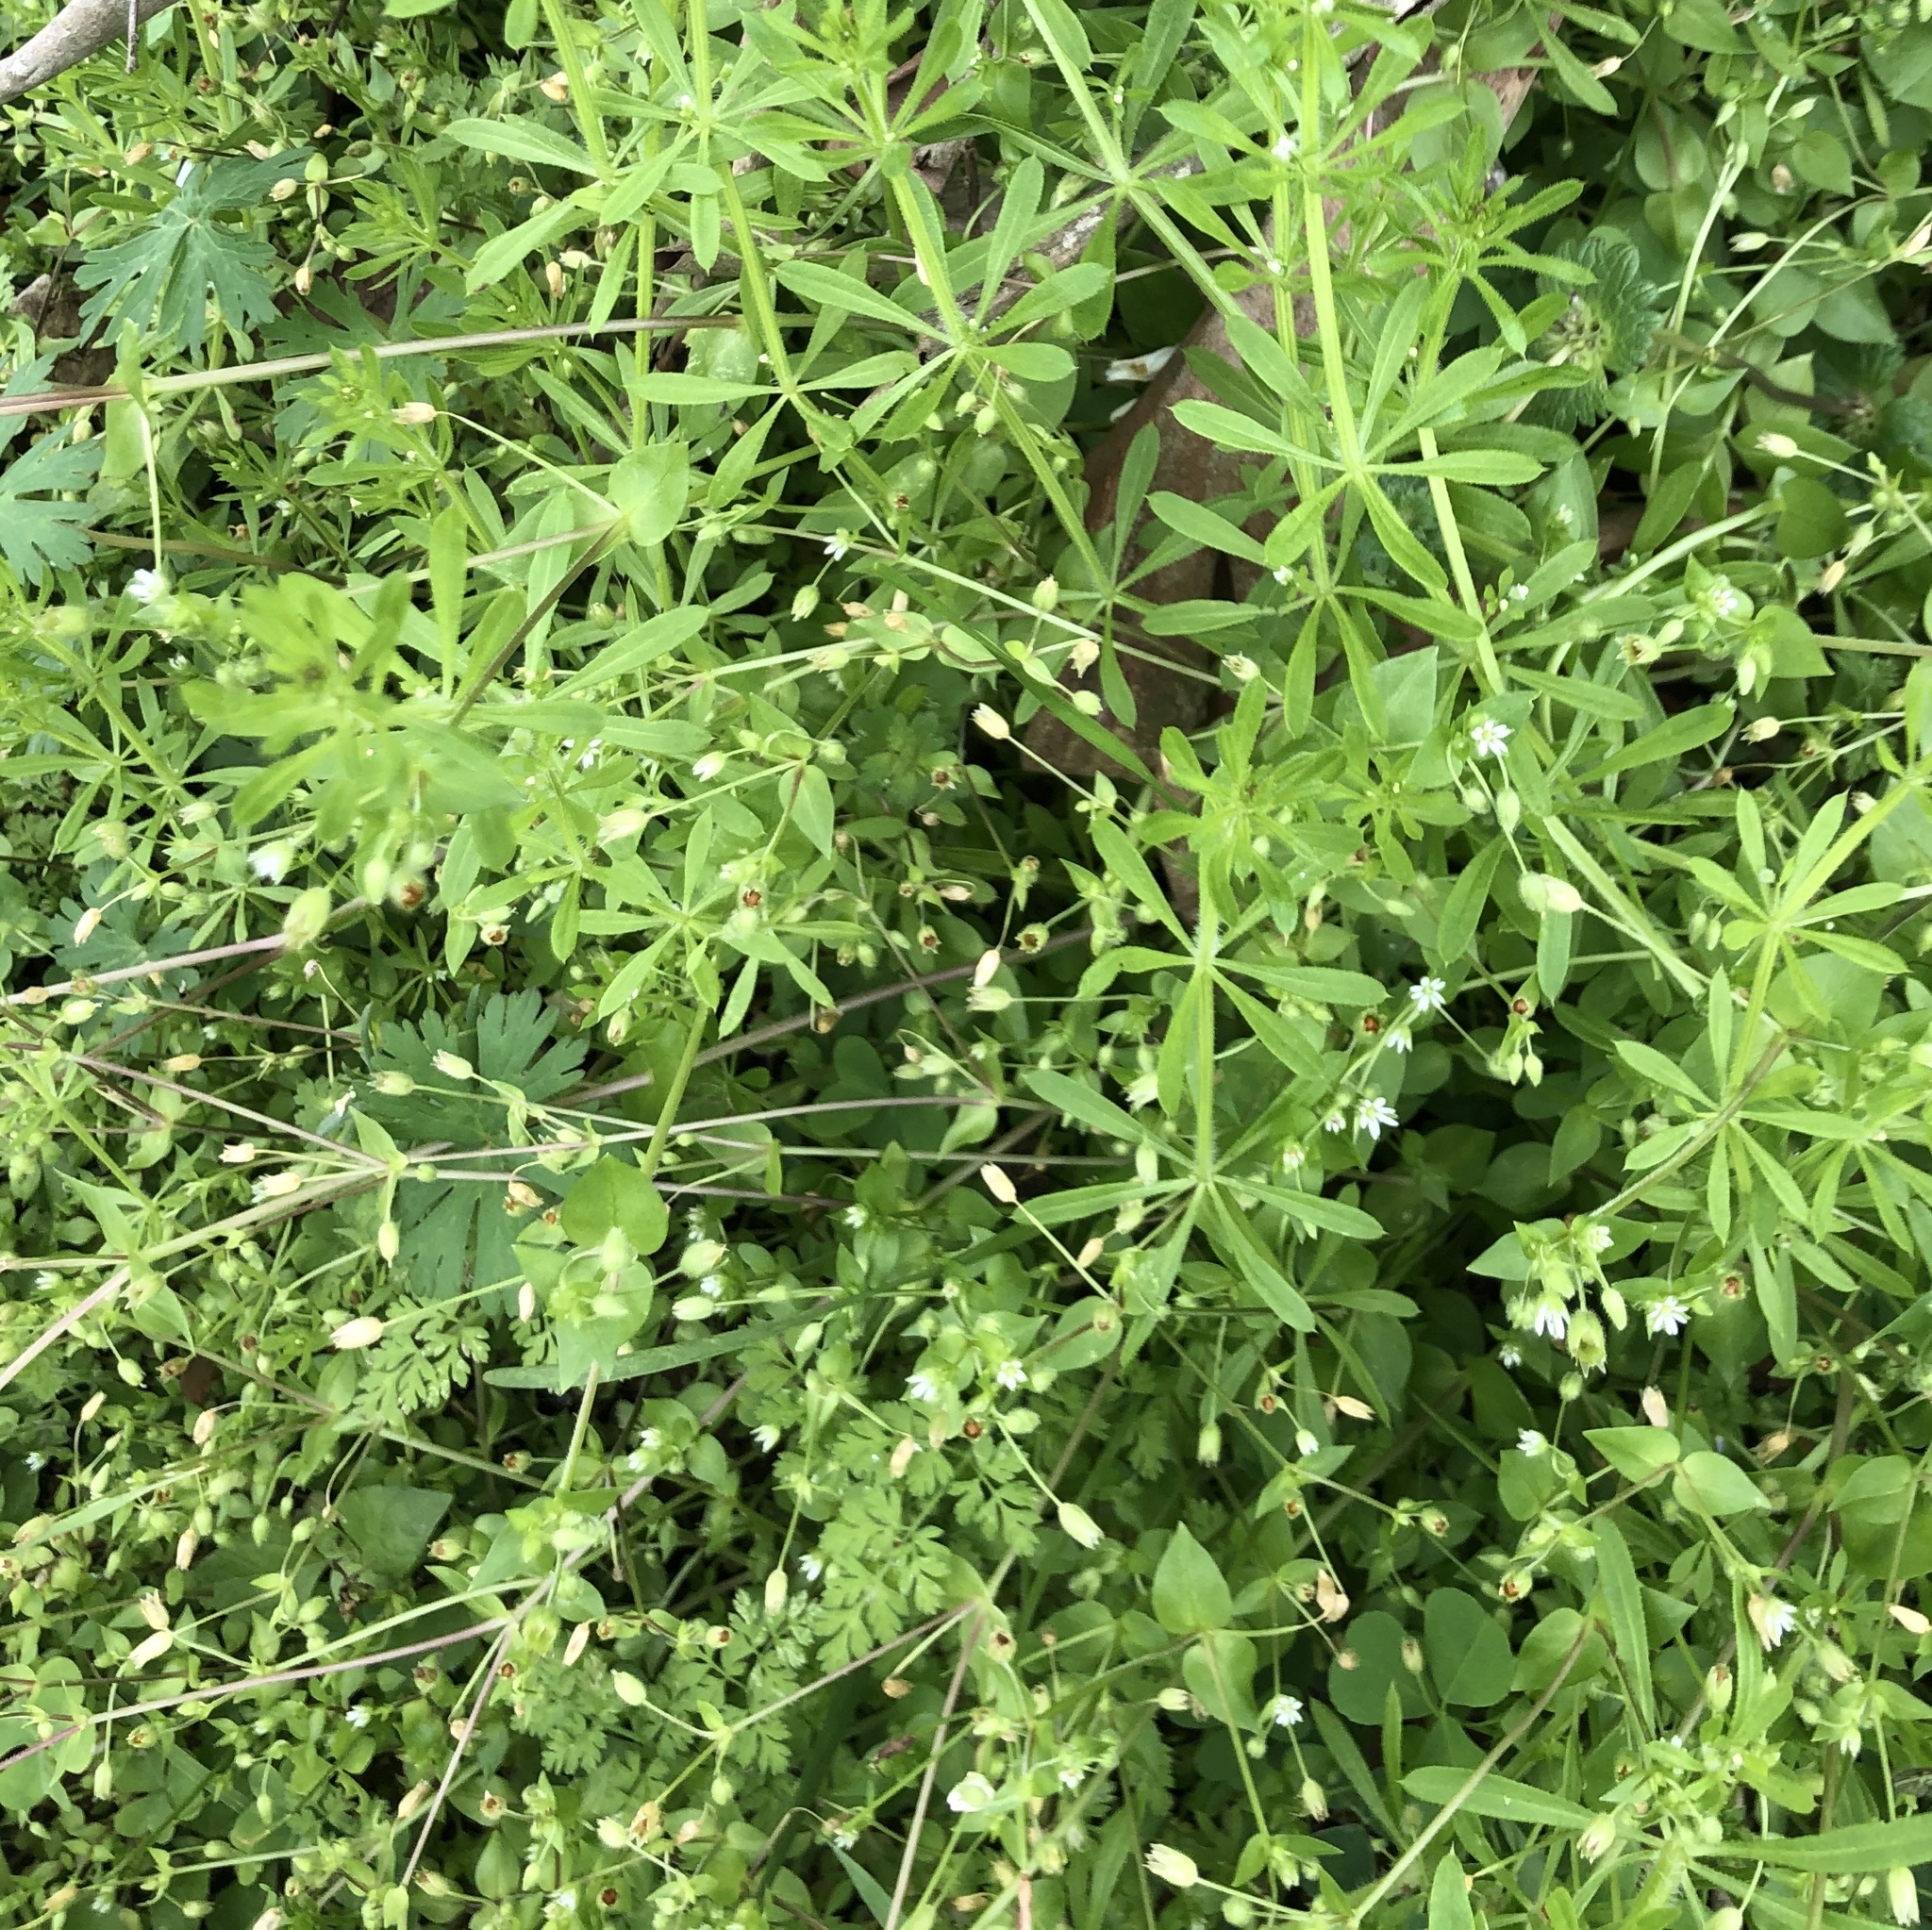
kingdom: Plantae
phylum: Tracheophyta
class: Magnoliopsida
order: Gentianales
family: Rubiaceae
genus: Galium
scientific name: Galium aparine
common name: Cleavers
